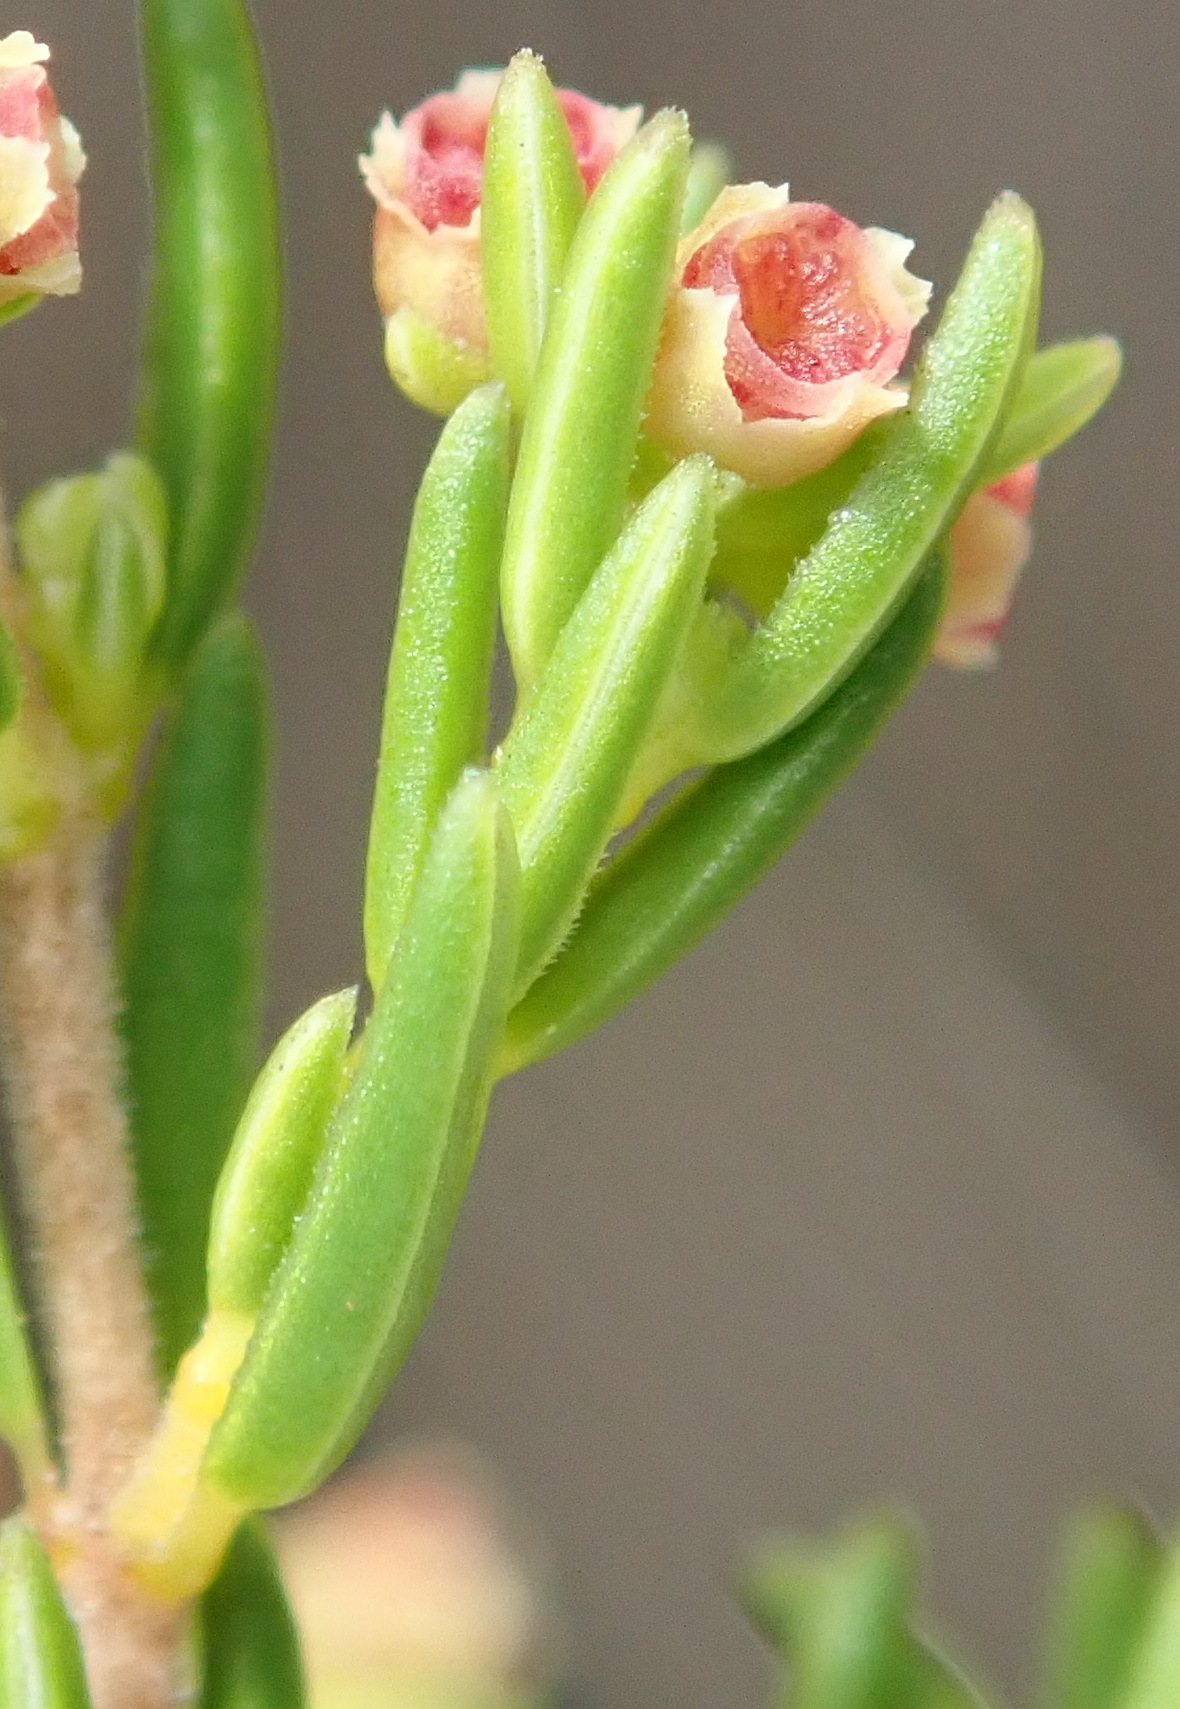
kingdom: Plantae
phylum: Tracheophyta
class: Magnoliopsida
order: Ericales
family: Ericaceae
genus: Erica
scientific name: Erica leucopelta
